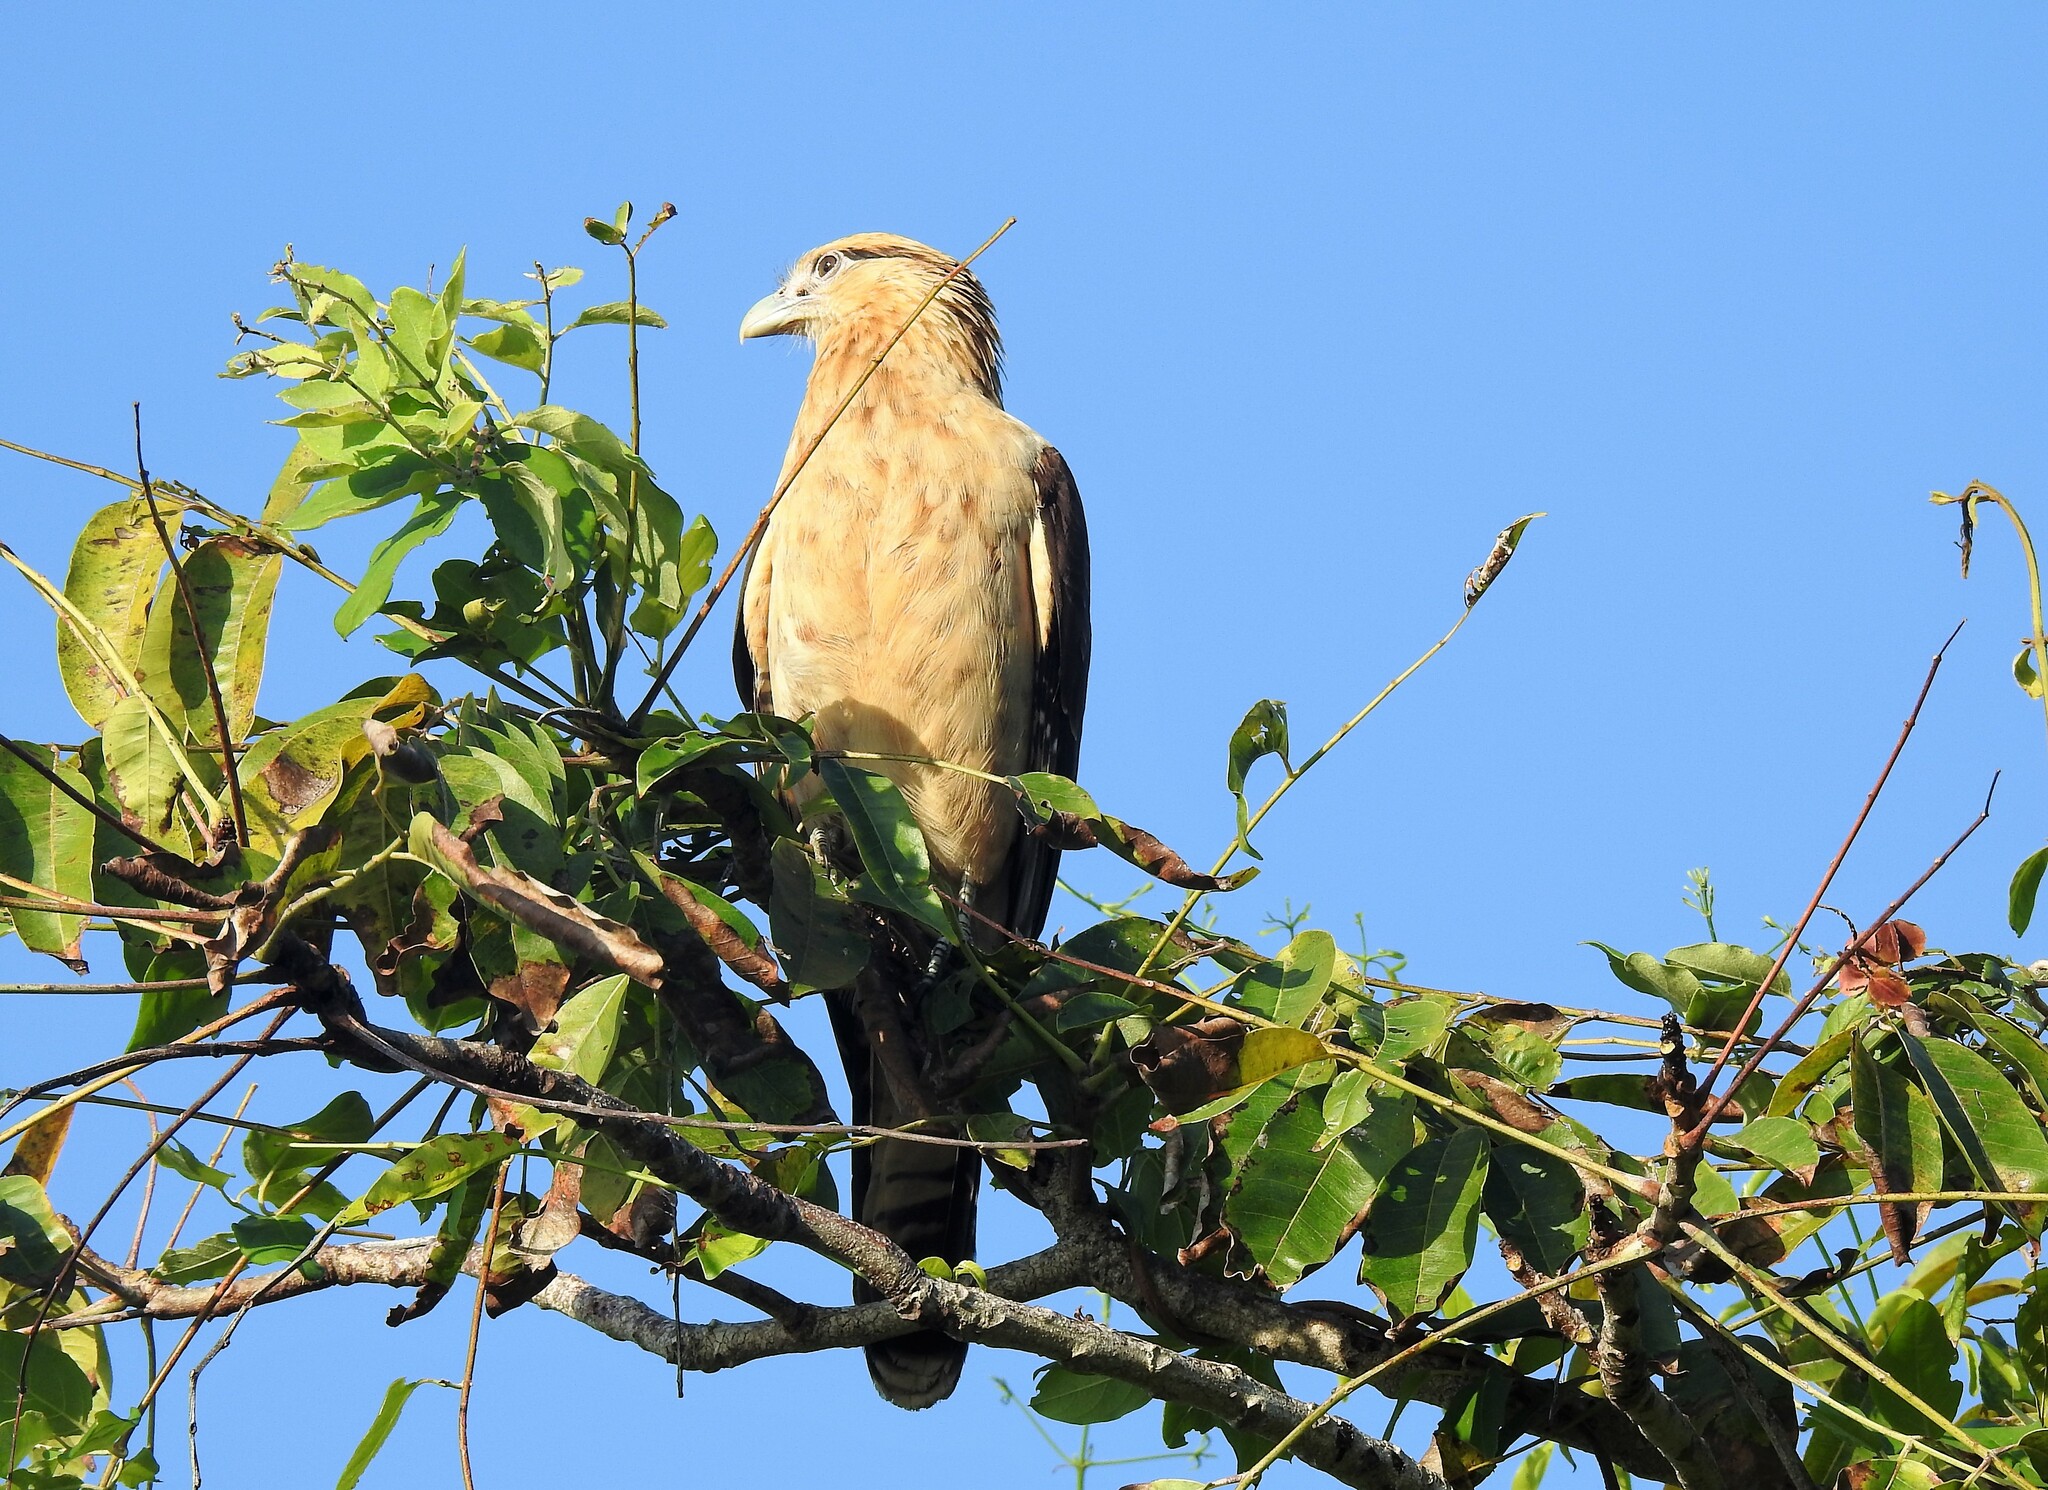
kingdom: Animalia
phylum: Chordata
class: Aves
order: Falconiformes
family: Falconidae
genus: Daptrius
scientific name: Daptrius
